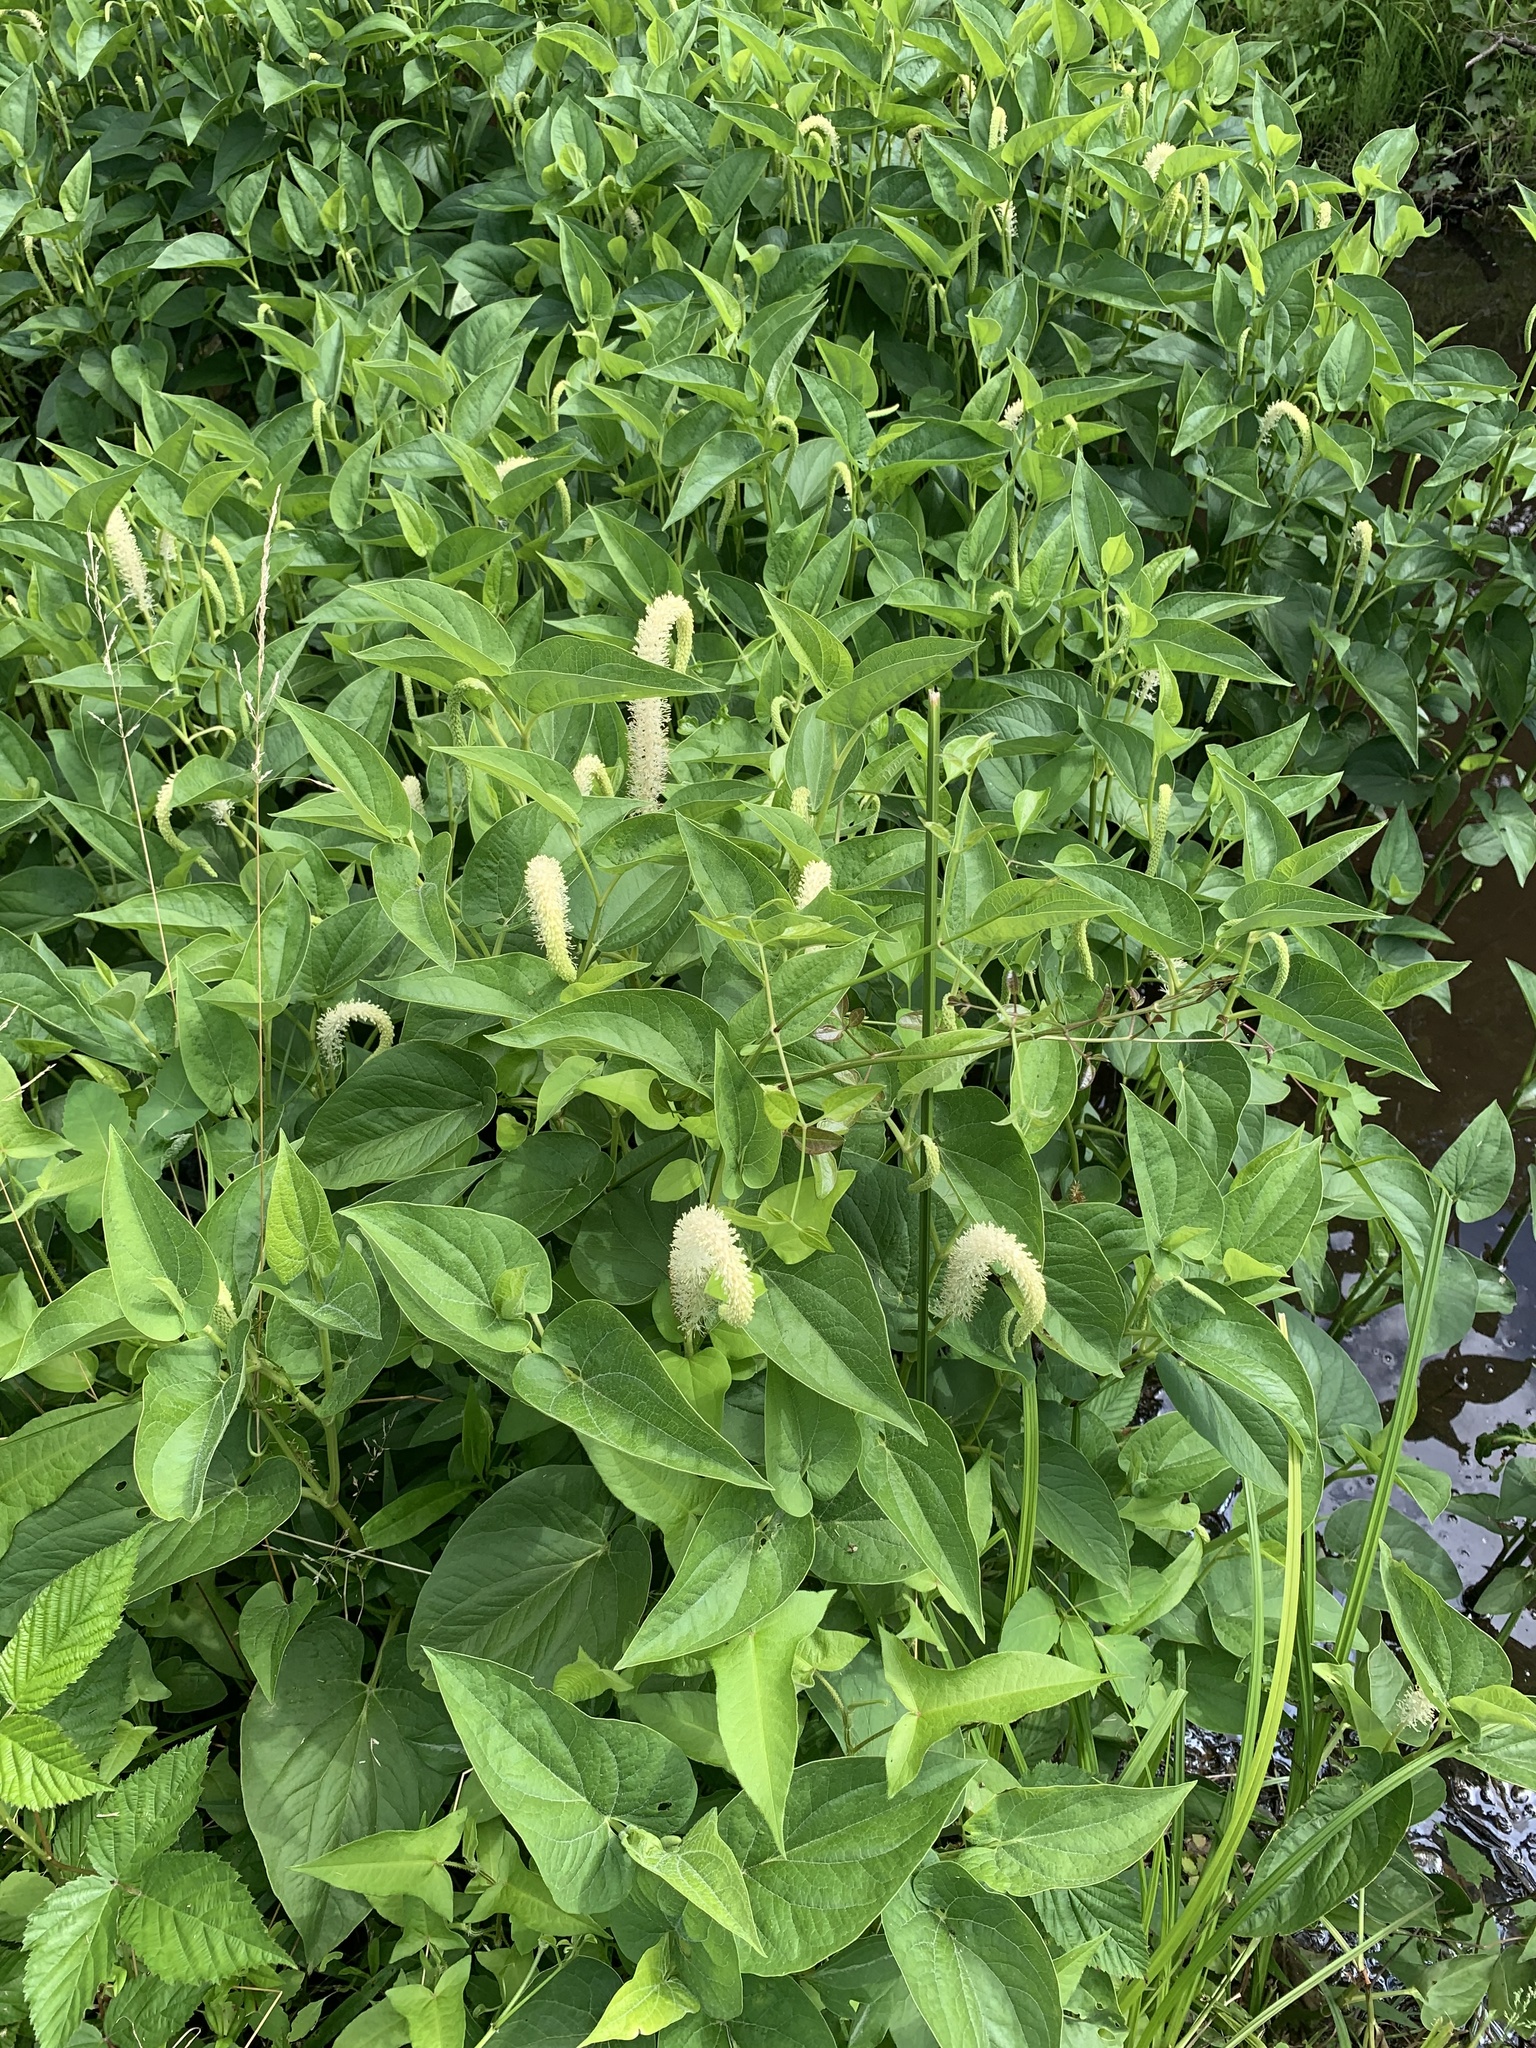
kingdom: Plantae
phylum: Tracheophyta
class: Magnoliopsida
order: Piperales
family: Saururaceae
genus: Saururus
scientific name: Saururus cernuus
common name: Lizard's-tail
